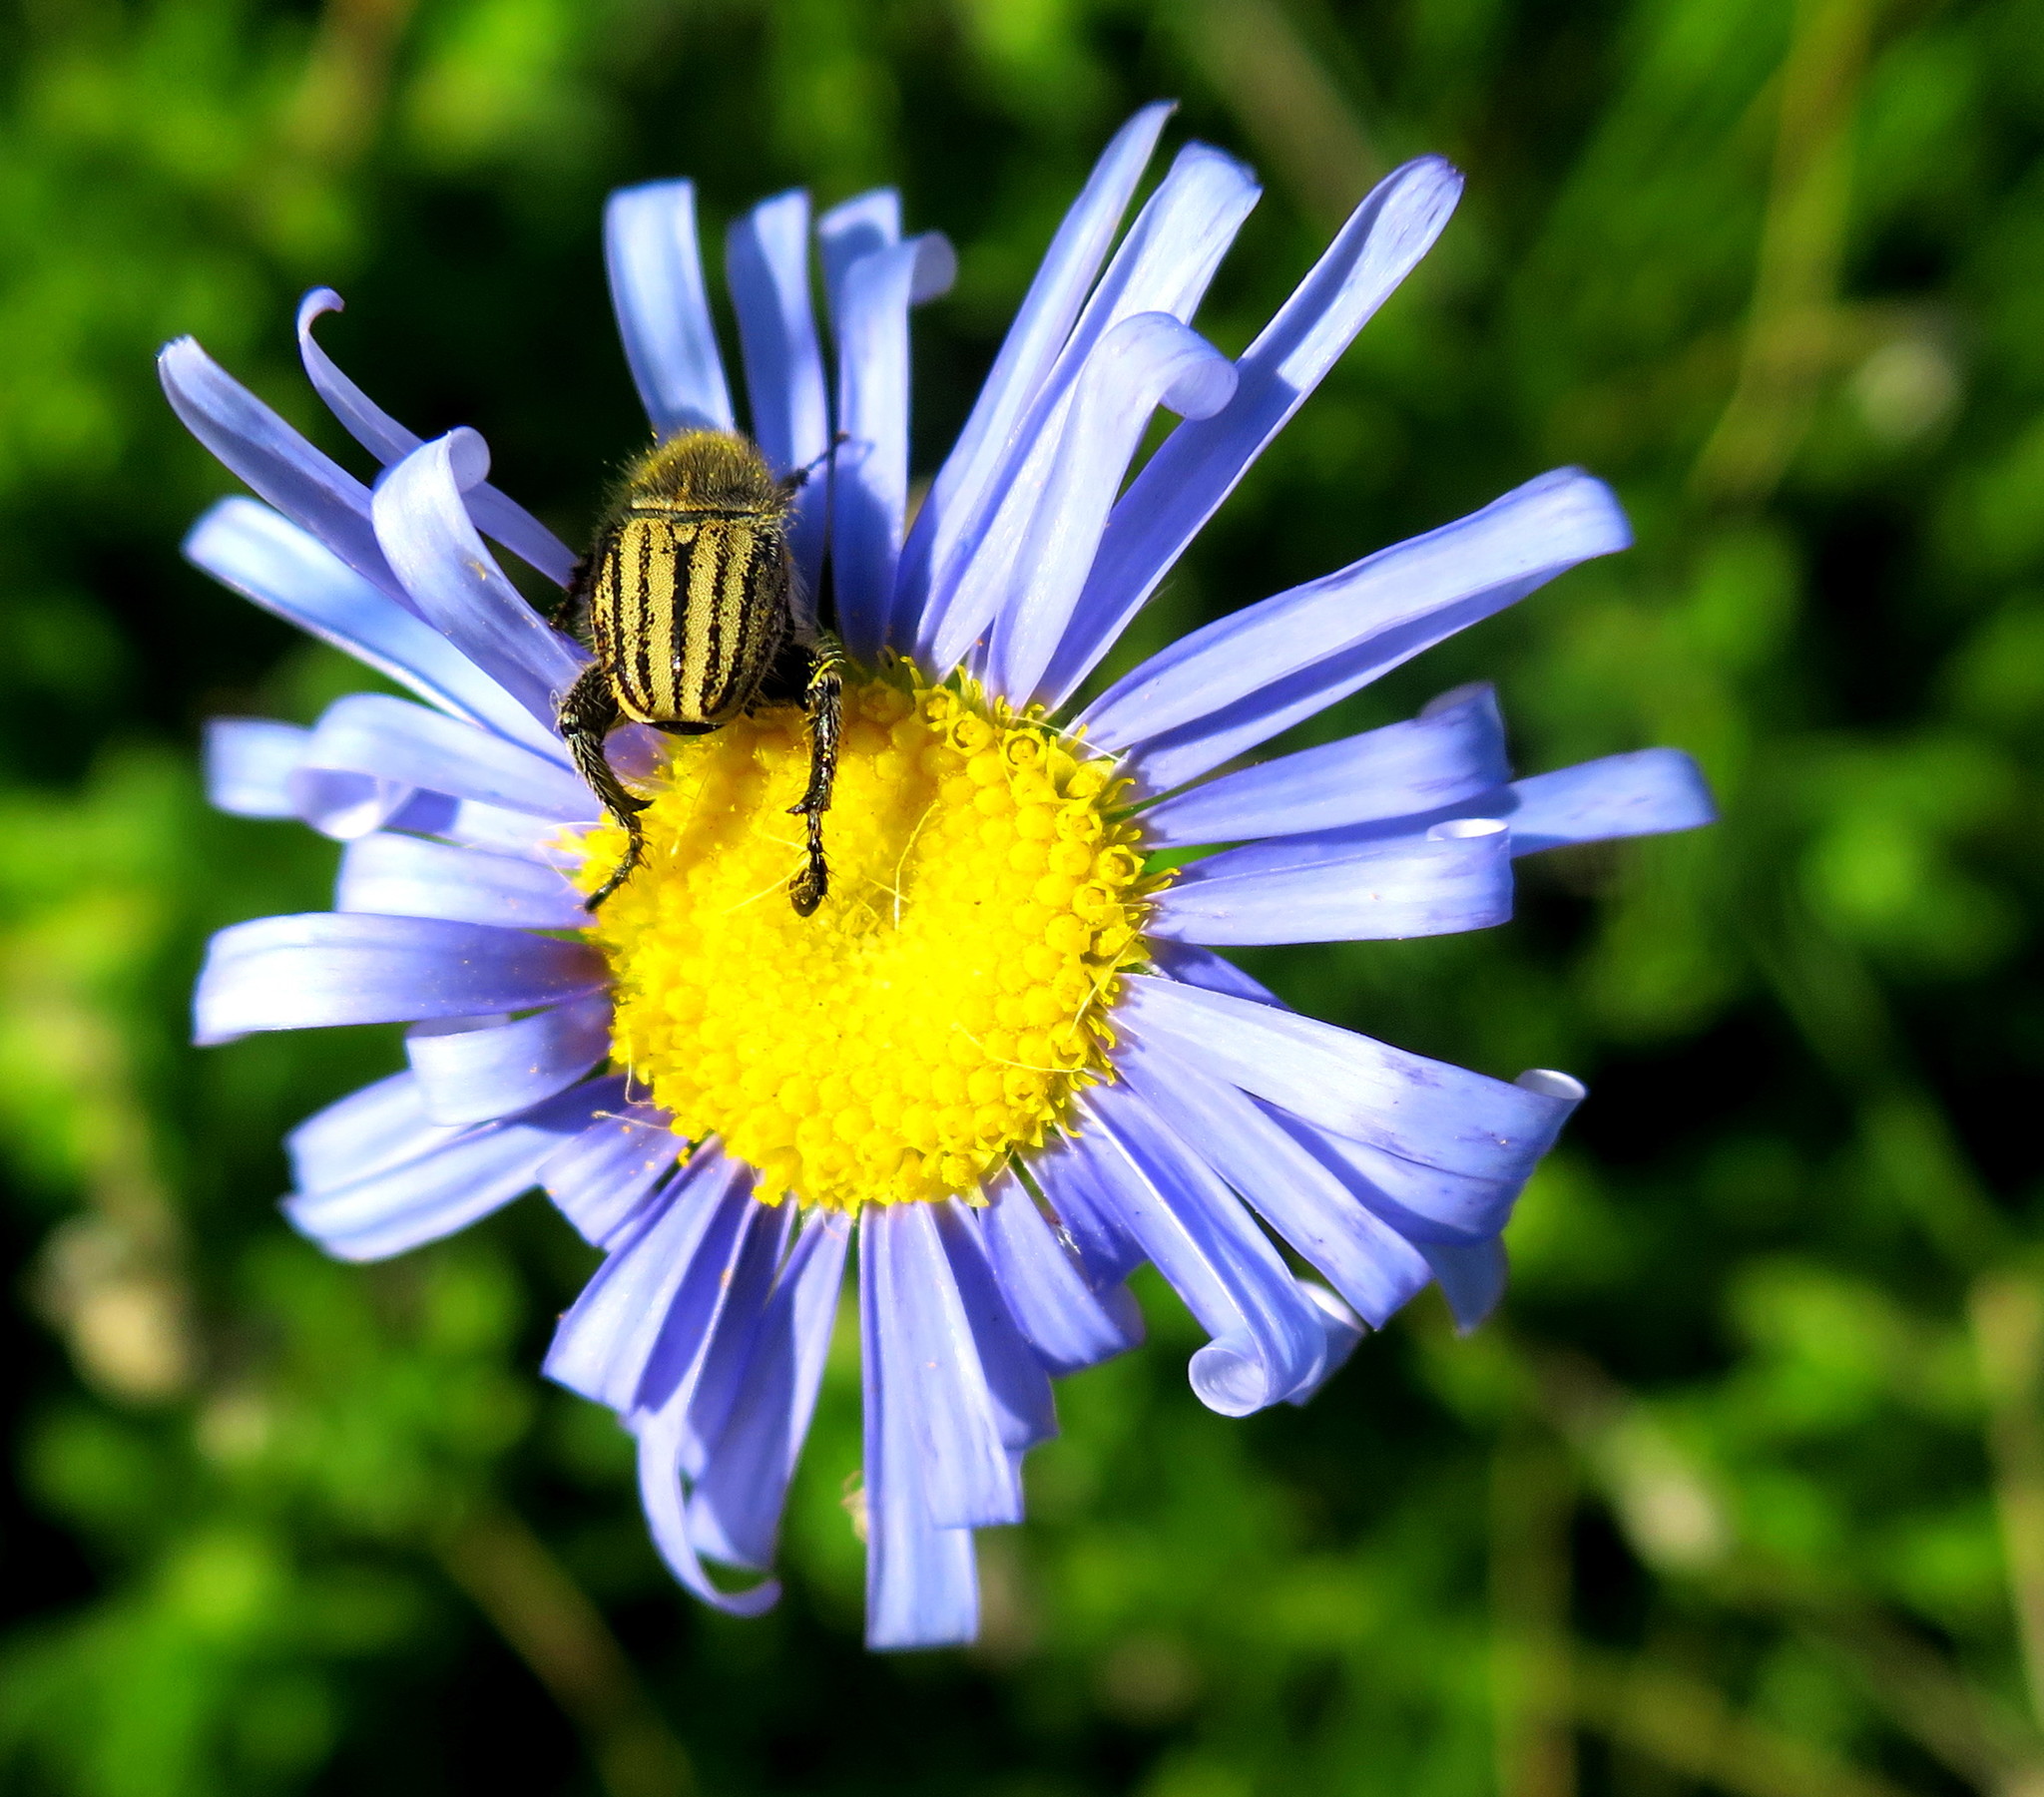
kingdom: Plantae
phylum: Tracheophyta
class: Magnoliopsida
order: Asterales
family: Asteraceae
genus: Felicia
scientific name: Felicia amoena
